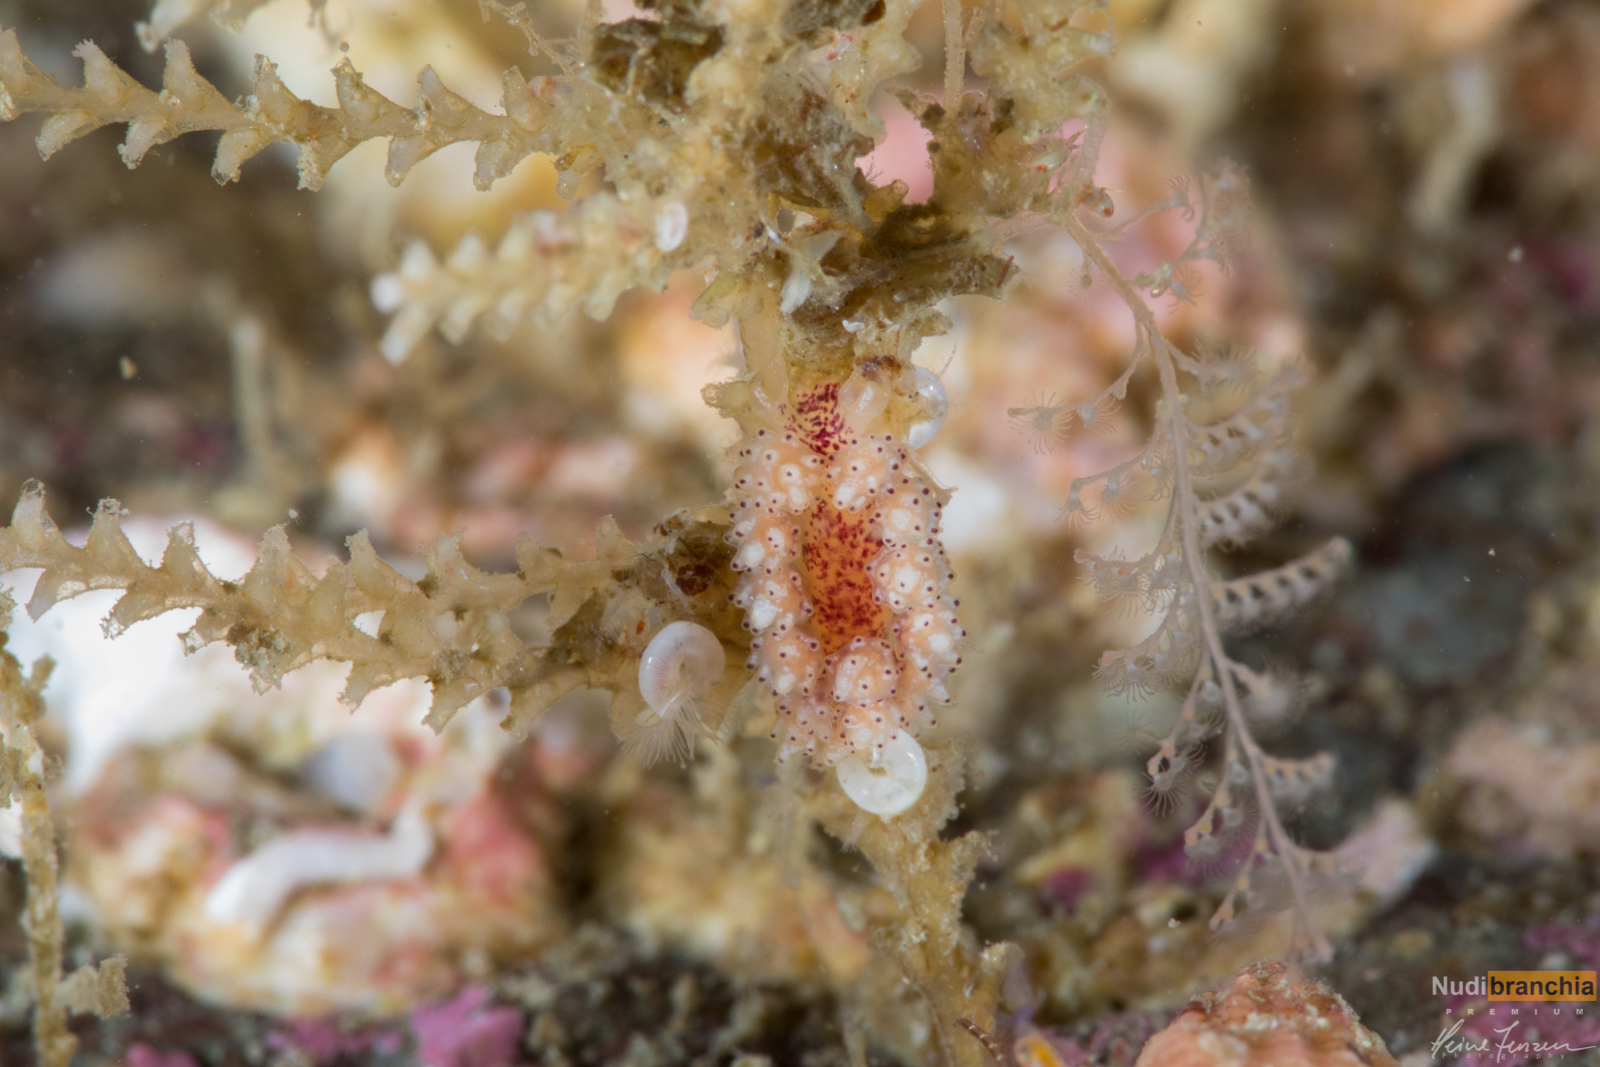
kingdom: Animalia
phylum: Mollusca
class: Gastropoda
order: Nudibranchia
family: Dotidae
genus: Doto
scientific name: Doto dunnei
